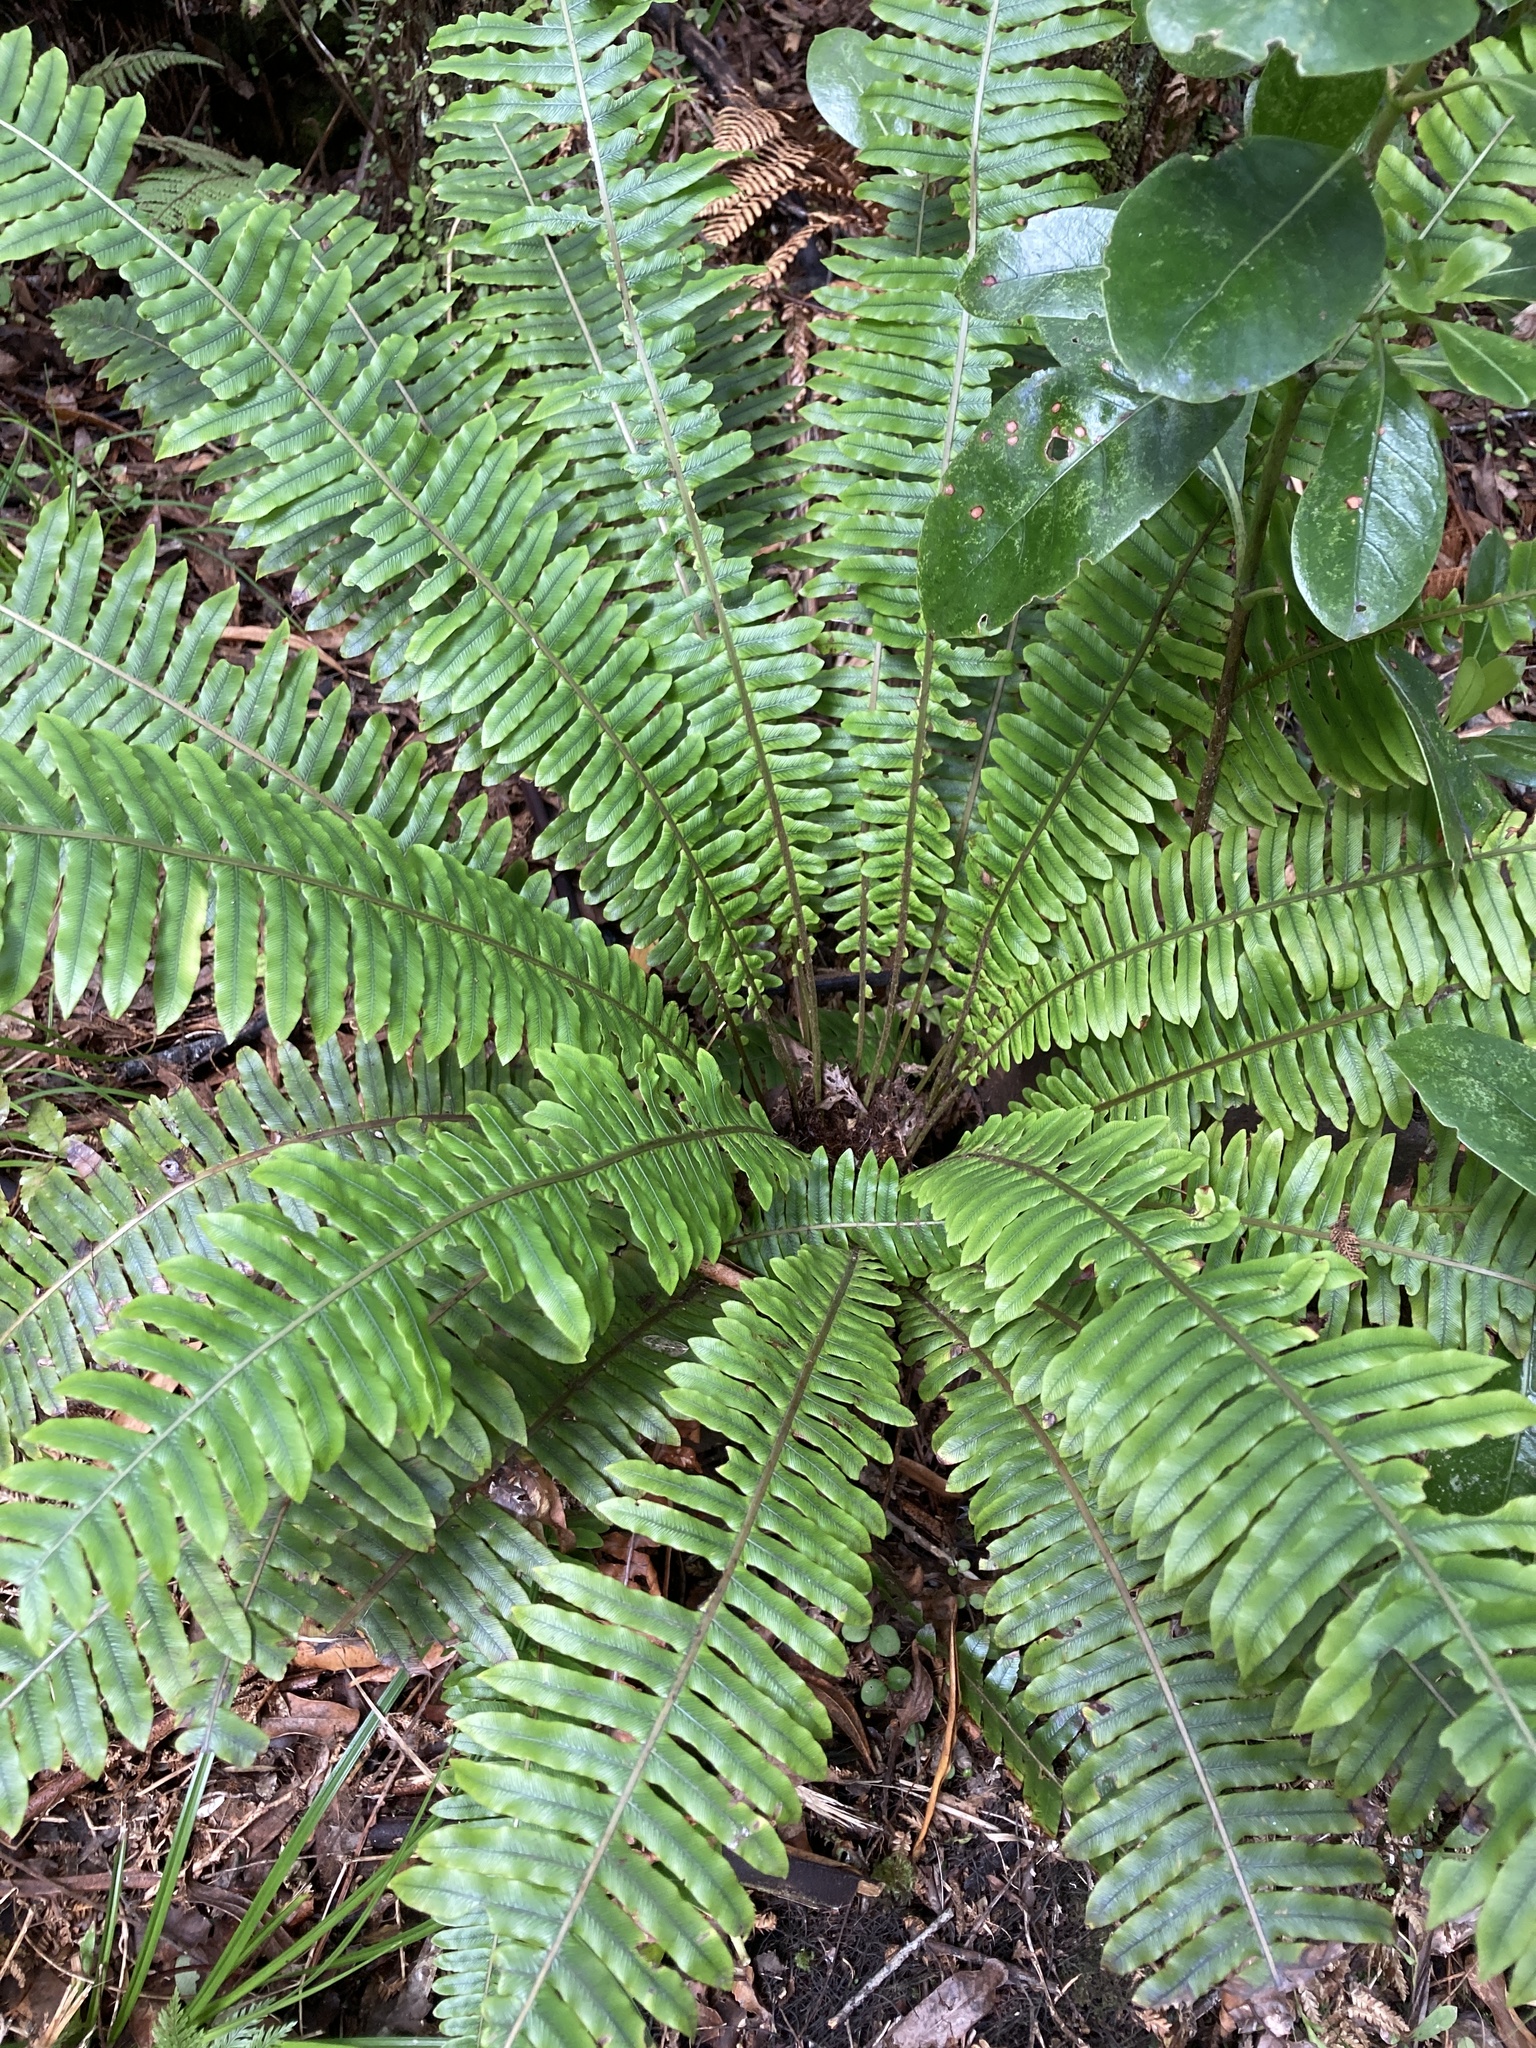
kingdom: Plantae
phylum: Tracheophyta
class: Polypodiopsida
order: Polypodiales
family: Blechnaceae
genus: Lomaria
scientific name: Lomaria discolor
